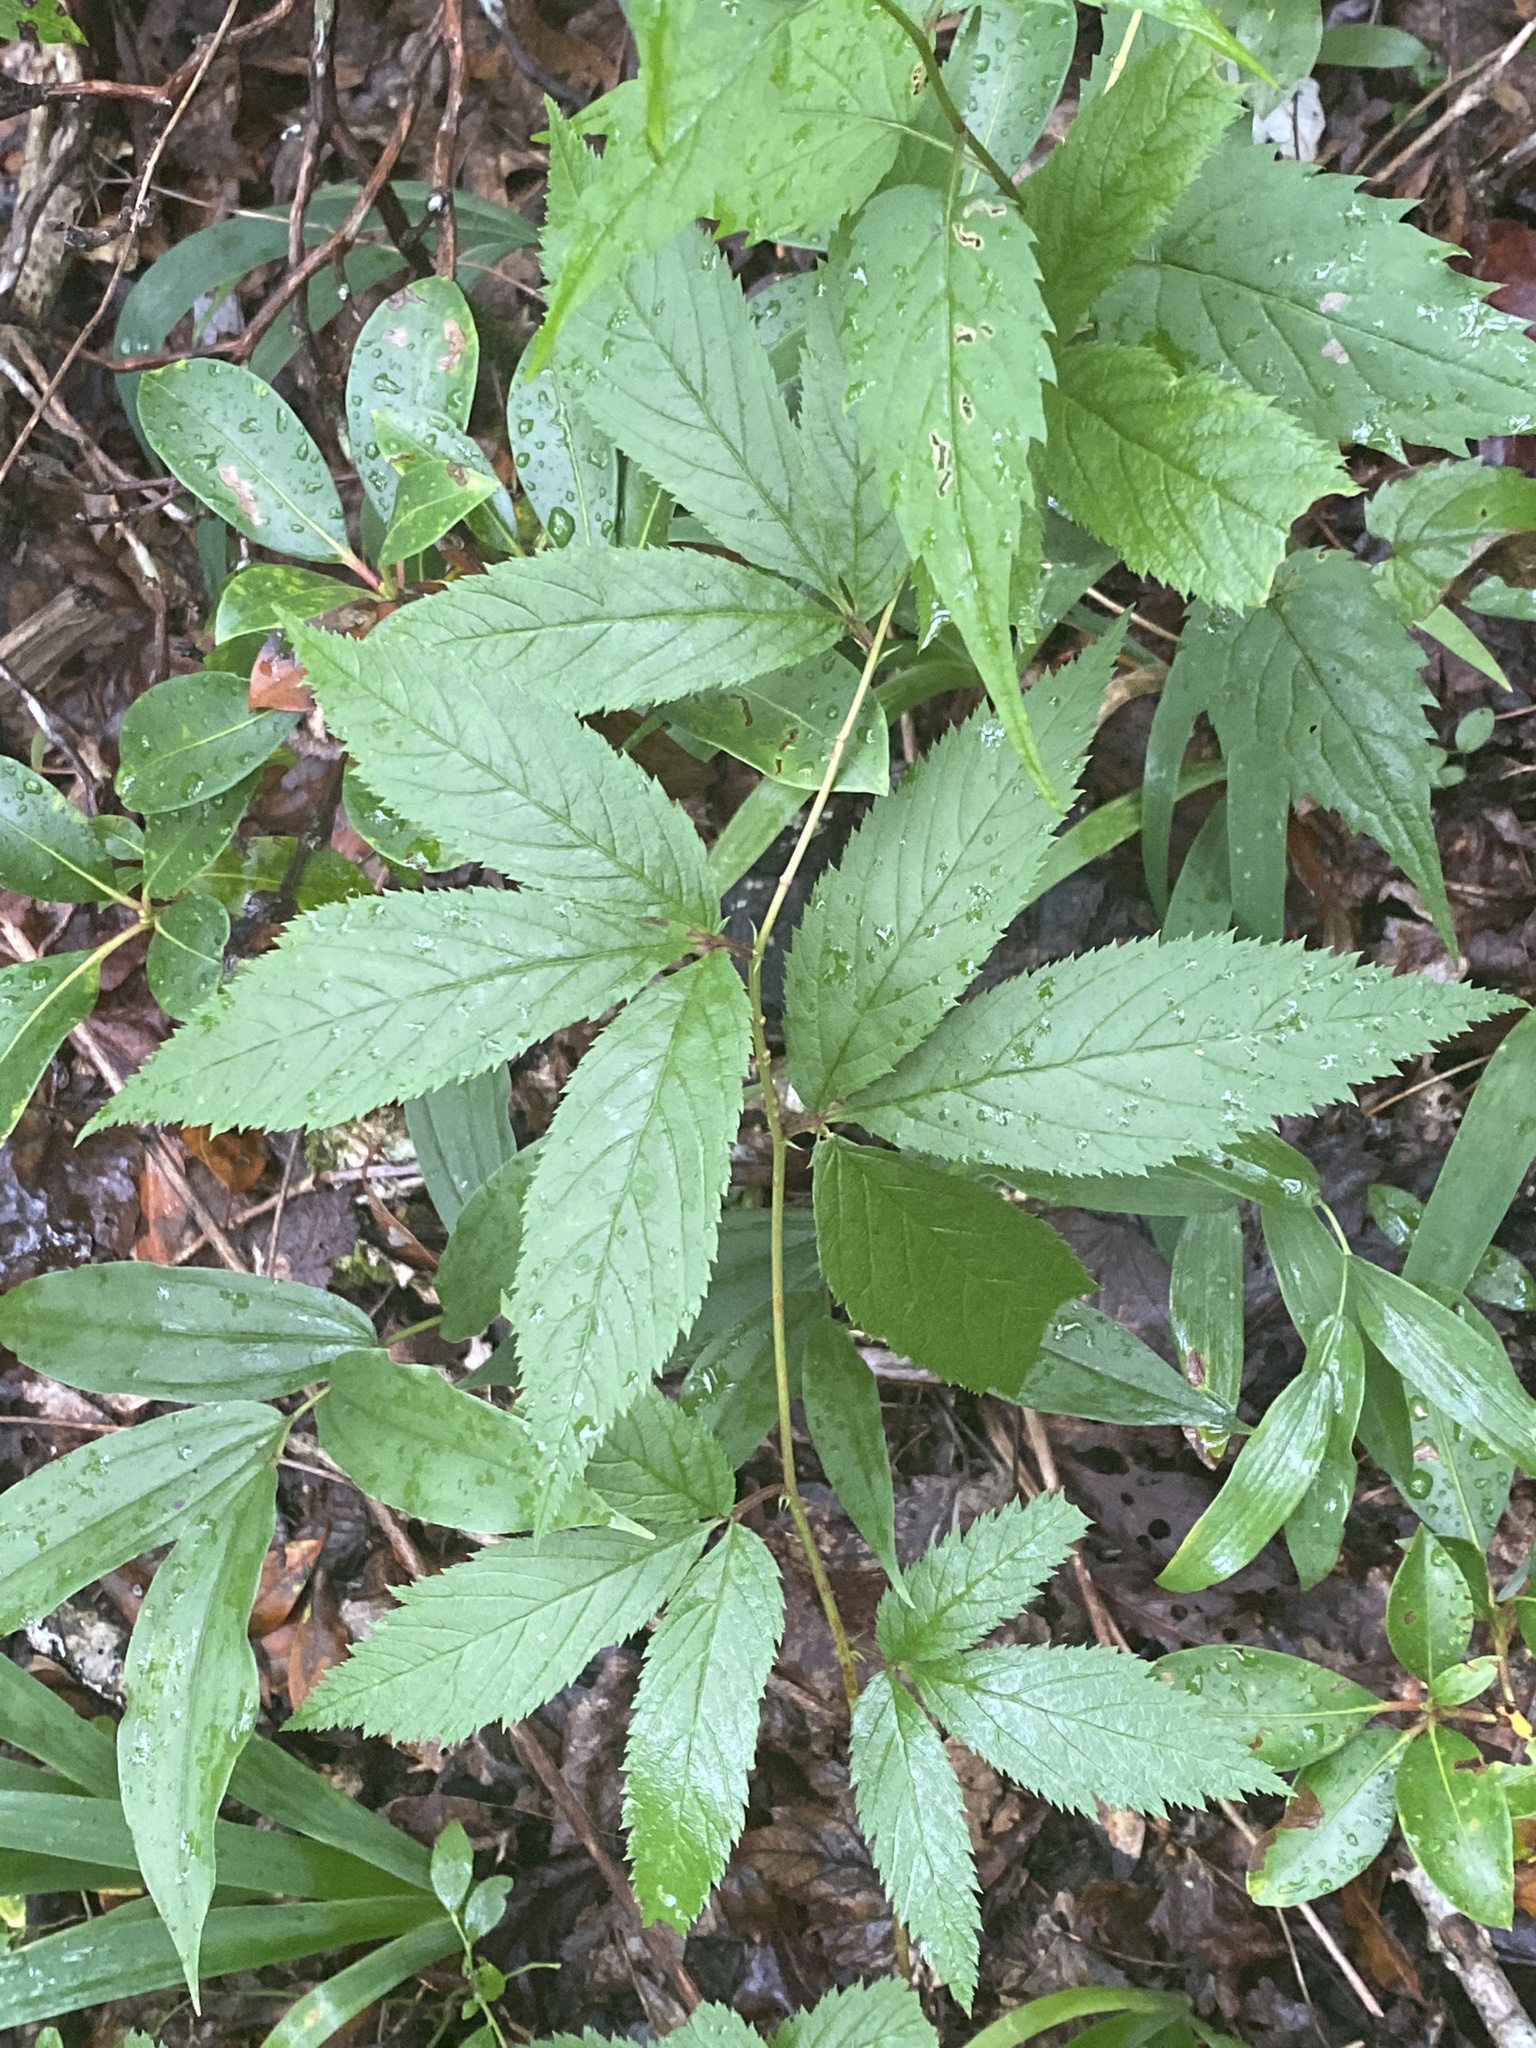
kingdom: Plantae
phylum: Tracheophyta
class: Magnoliopsida
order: Rosales
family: Rosaceae
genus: Gillenia
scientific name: Gillenia trifoliata
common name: Bowman's-root
